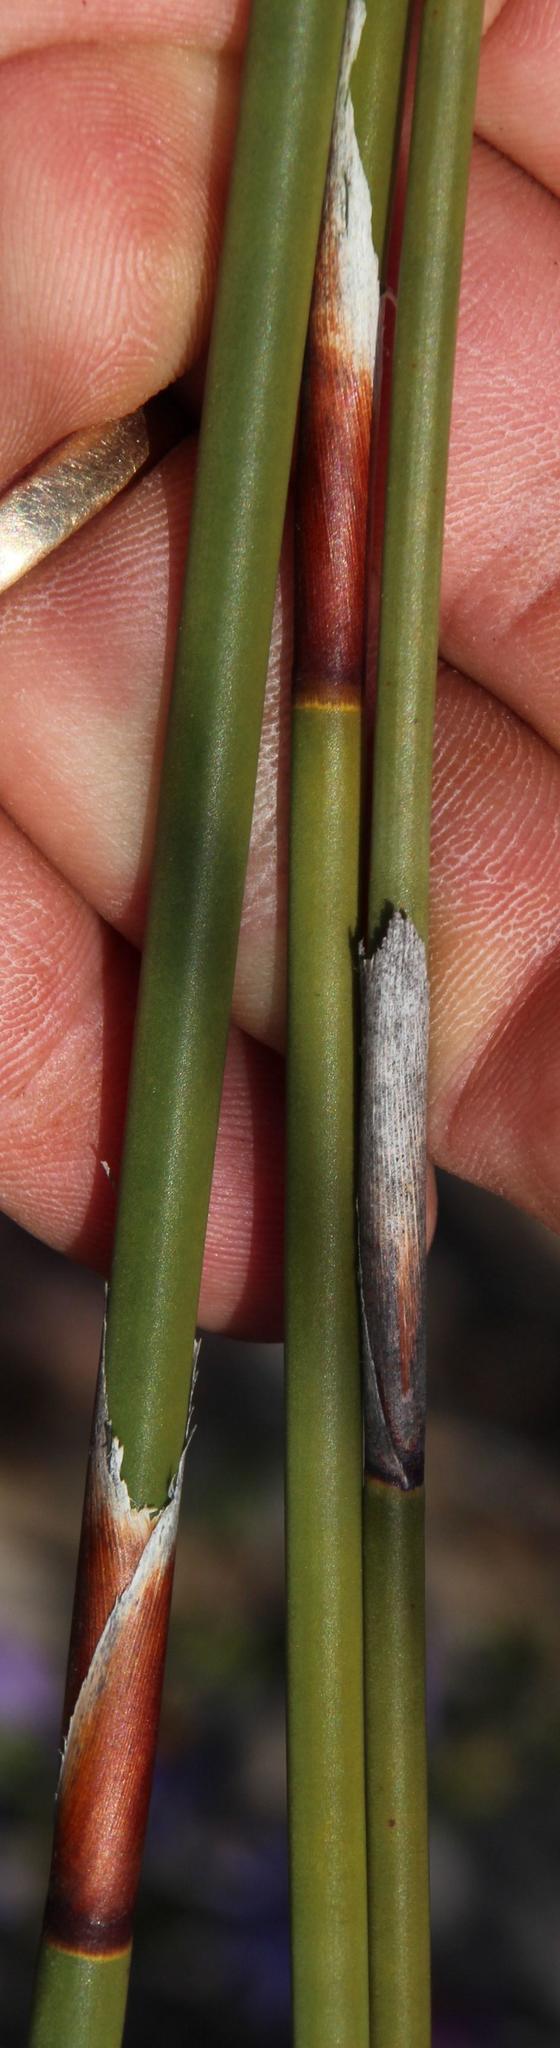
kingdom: Plantae
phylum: Tracheophyta
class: Liliopsida
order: Poales
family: Restionaceae
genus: Rhodocoma
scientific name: Rhodocoma fruticosa
